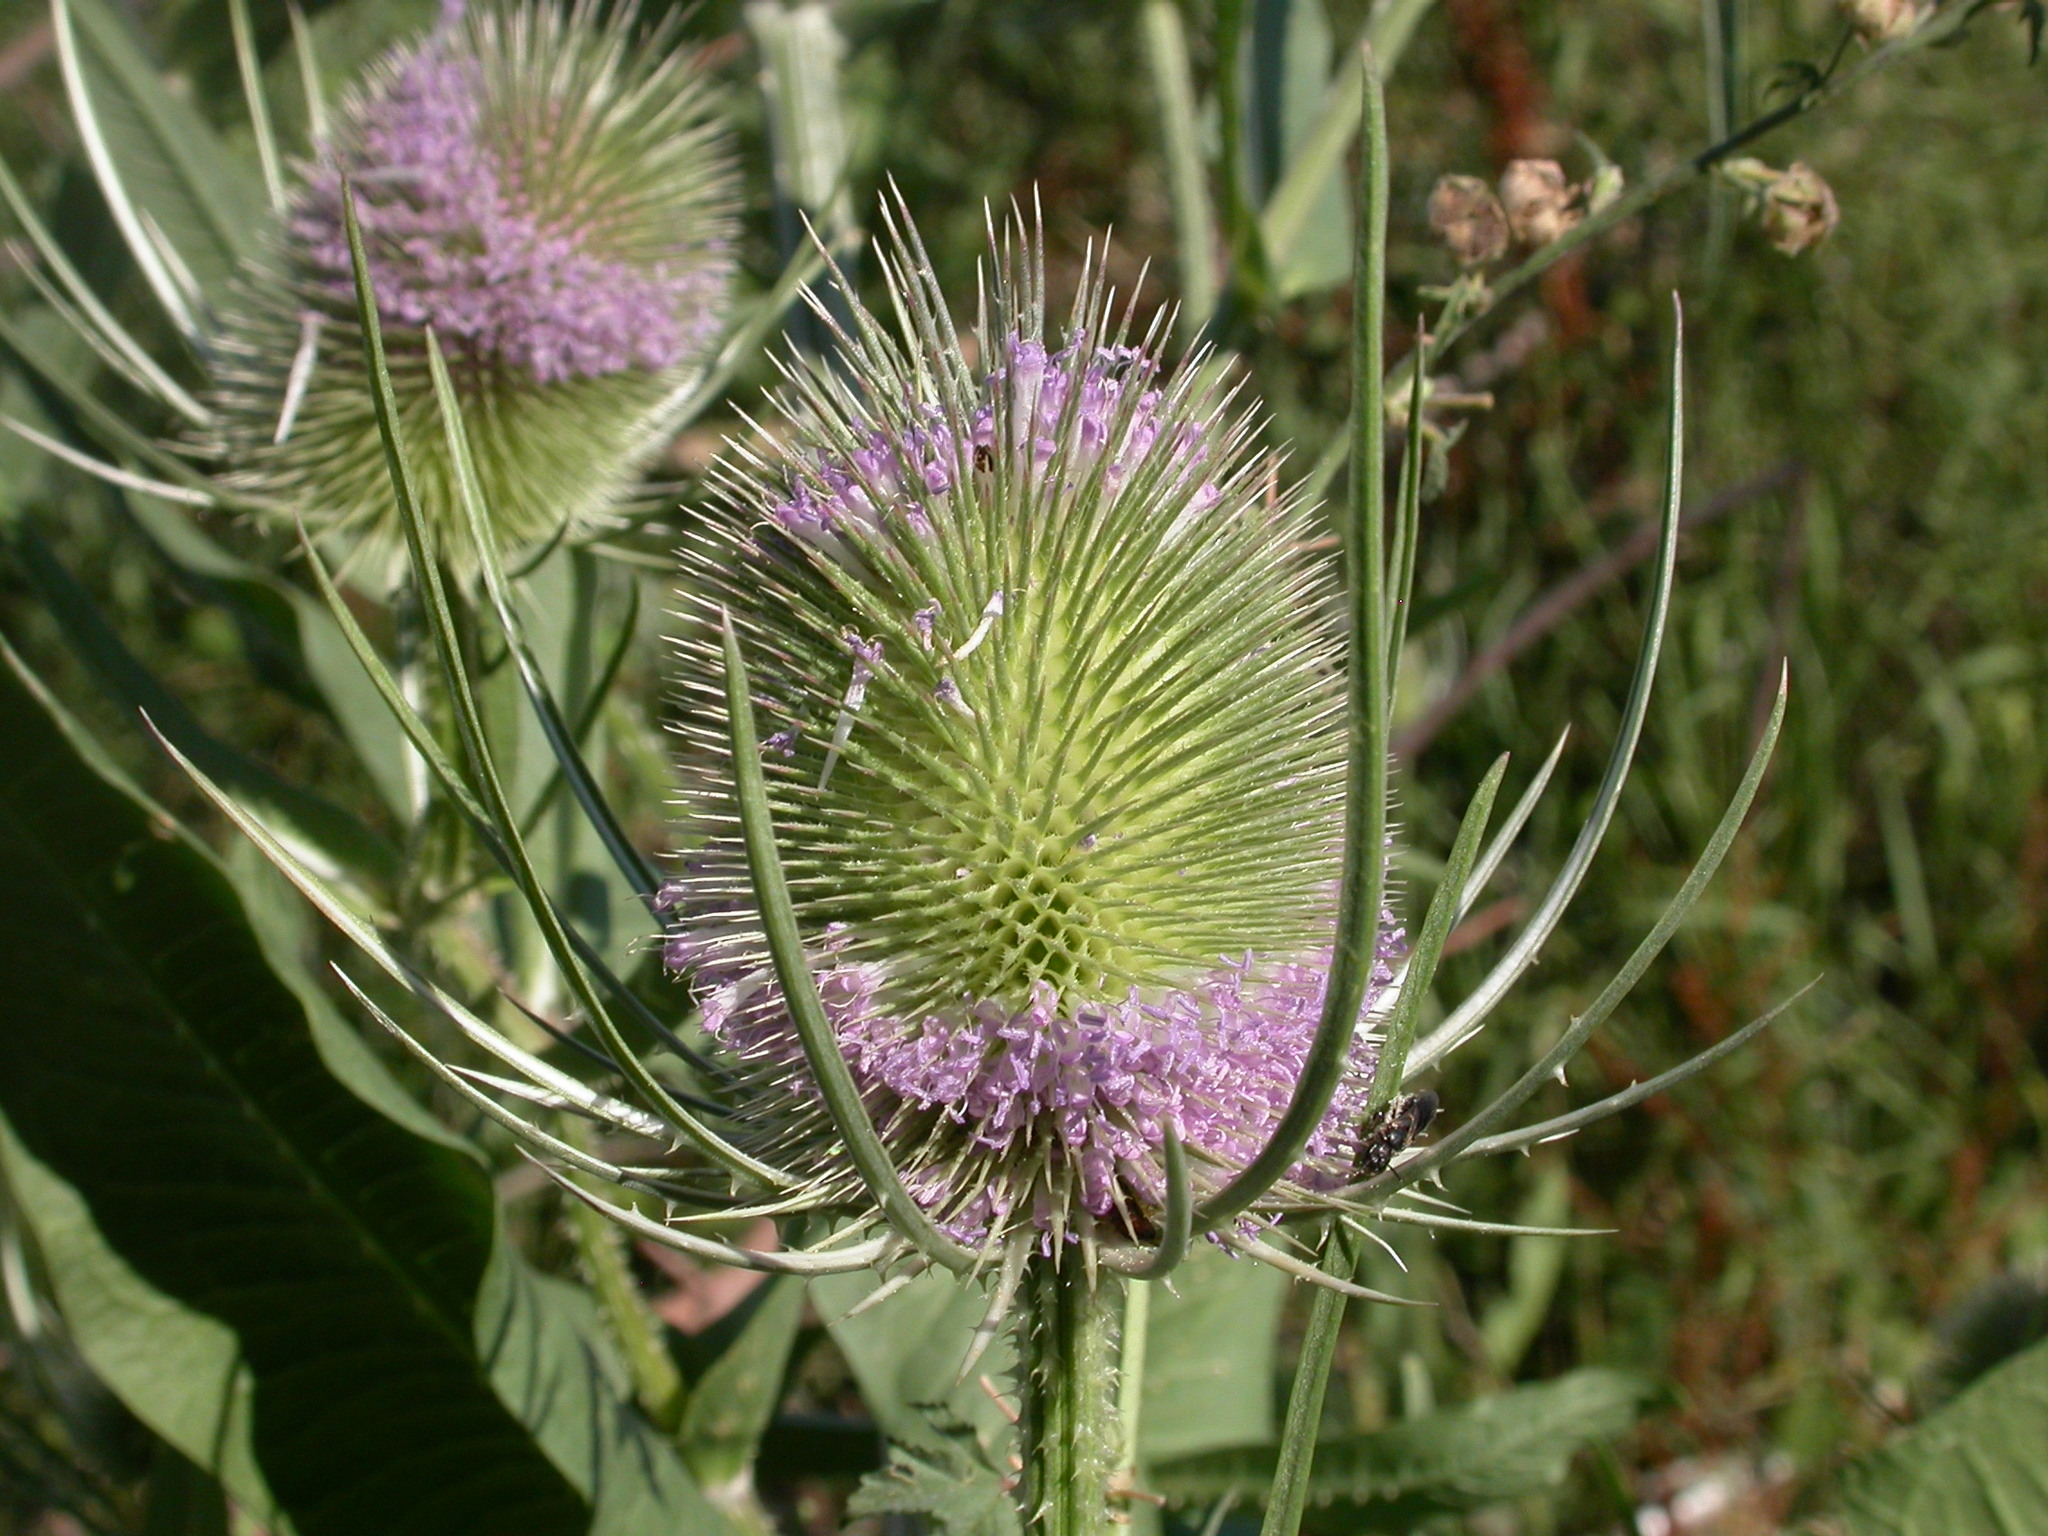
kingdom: Plantae
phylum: Tracheophyta
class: Magnoliopsida
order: Dipsacales
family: Caprifoliaceae
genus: Dipsacus
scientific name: Dipsacus fullonum
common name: Teasel
